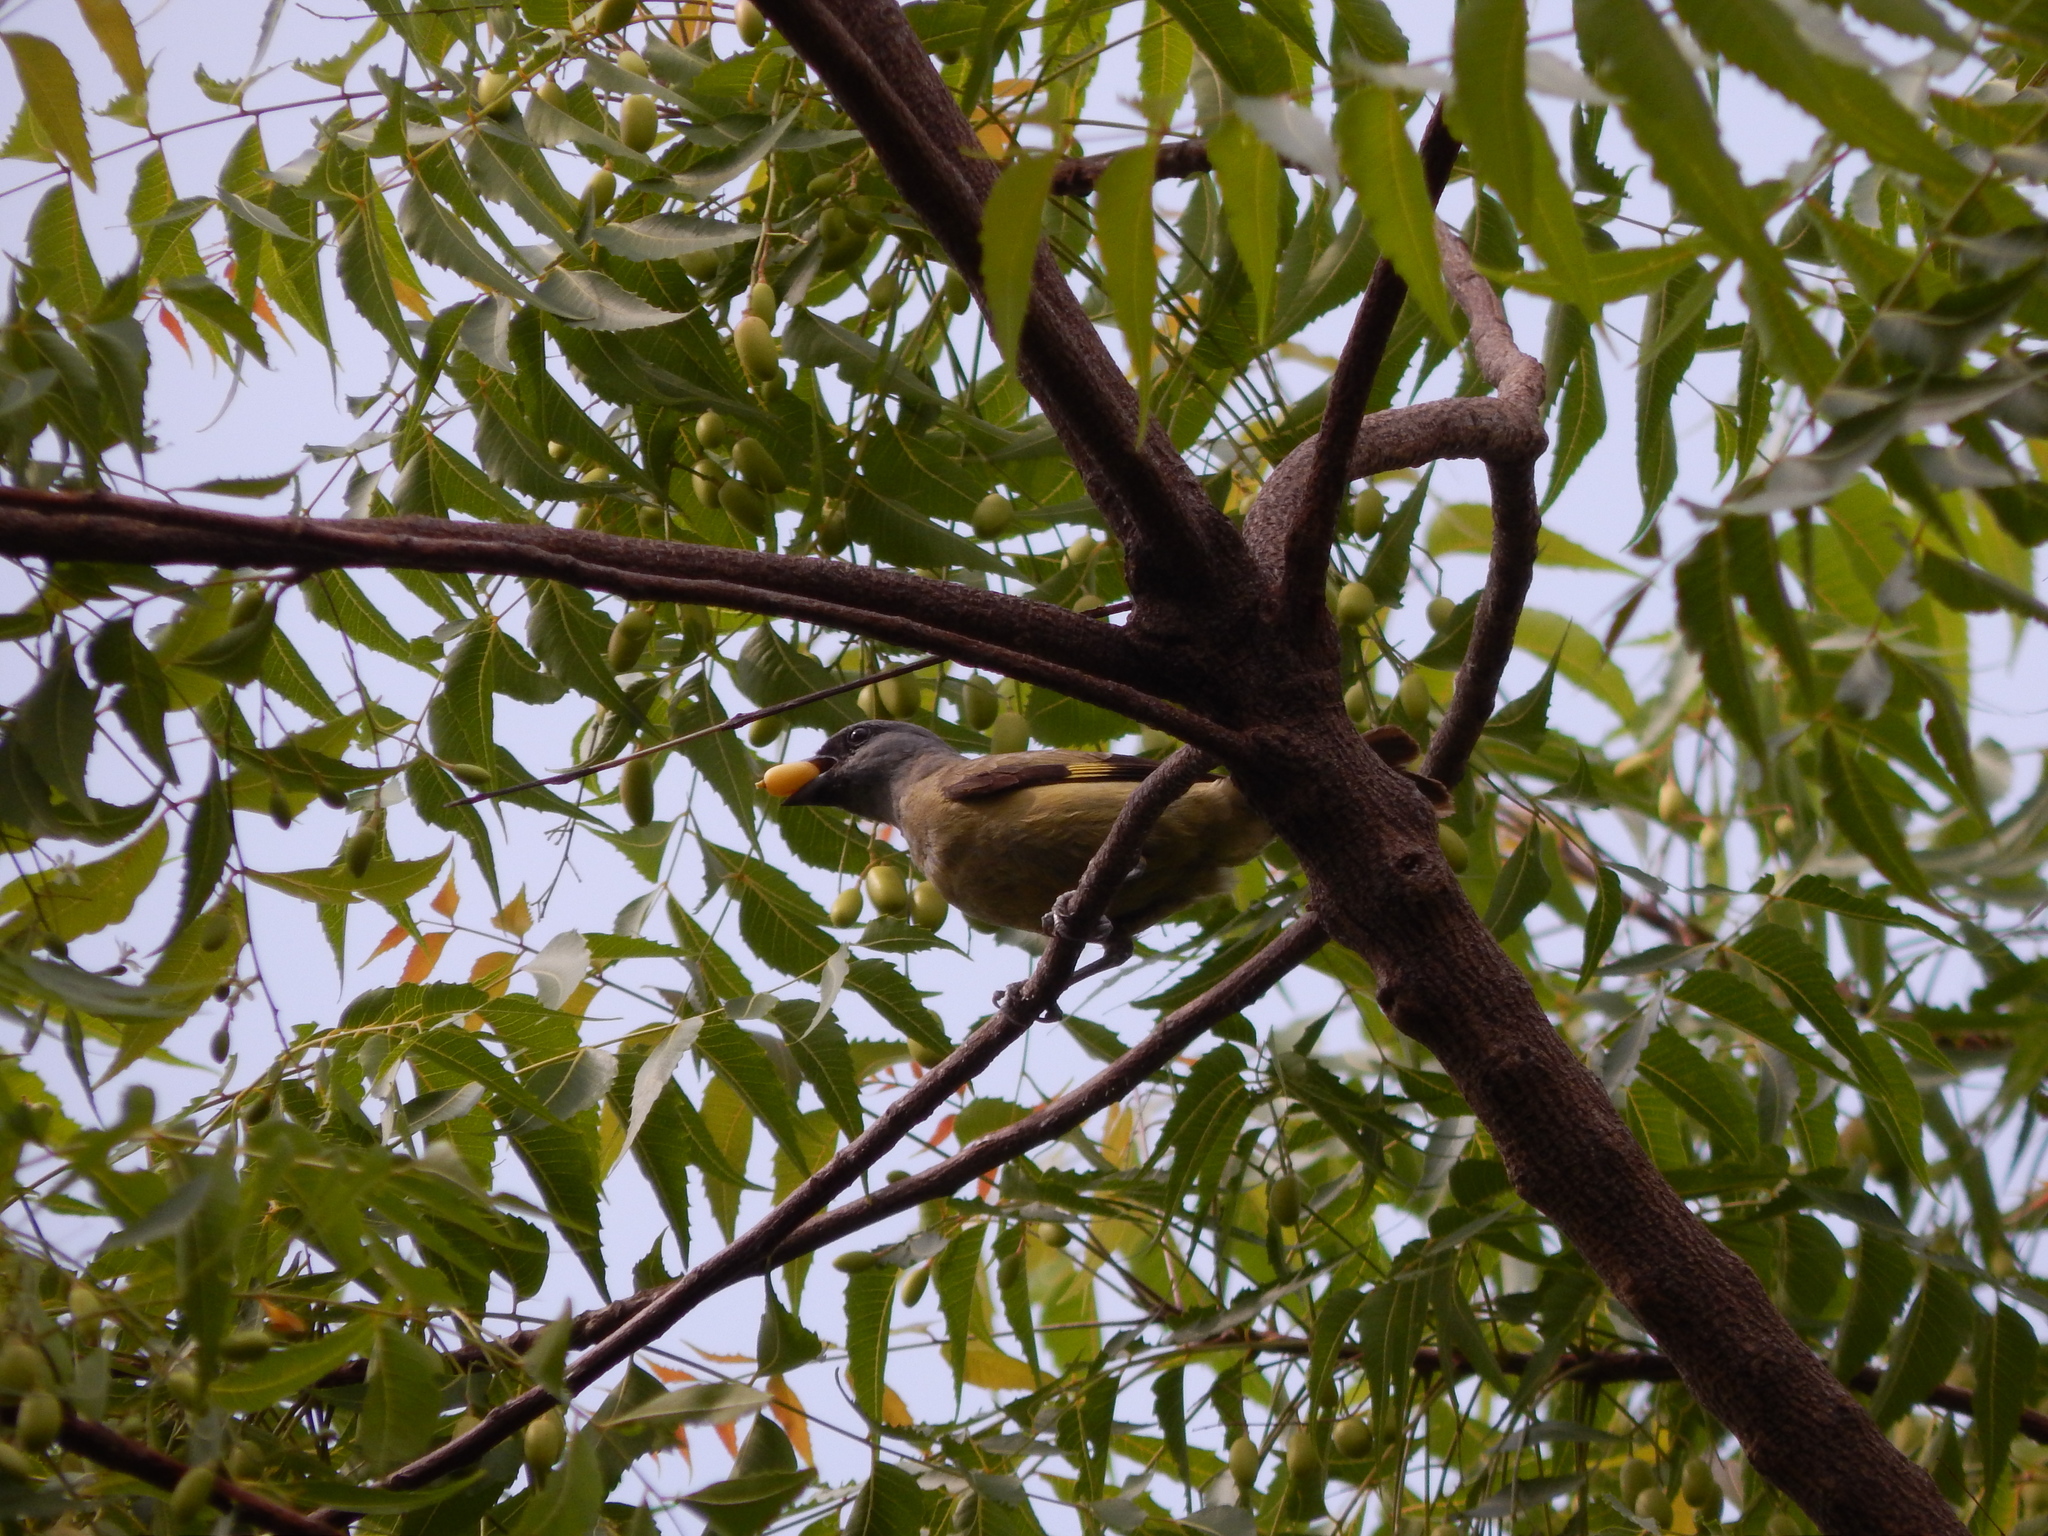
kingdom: Animalia
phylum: Chordata
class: Aves
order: Passeriformes
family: Thraupidae
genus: Thraupis
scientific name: Thraupis abbas
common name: Yellow-winged tanager
